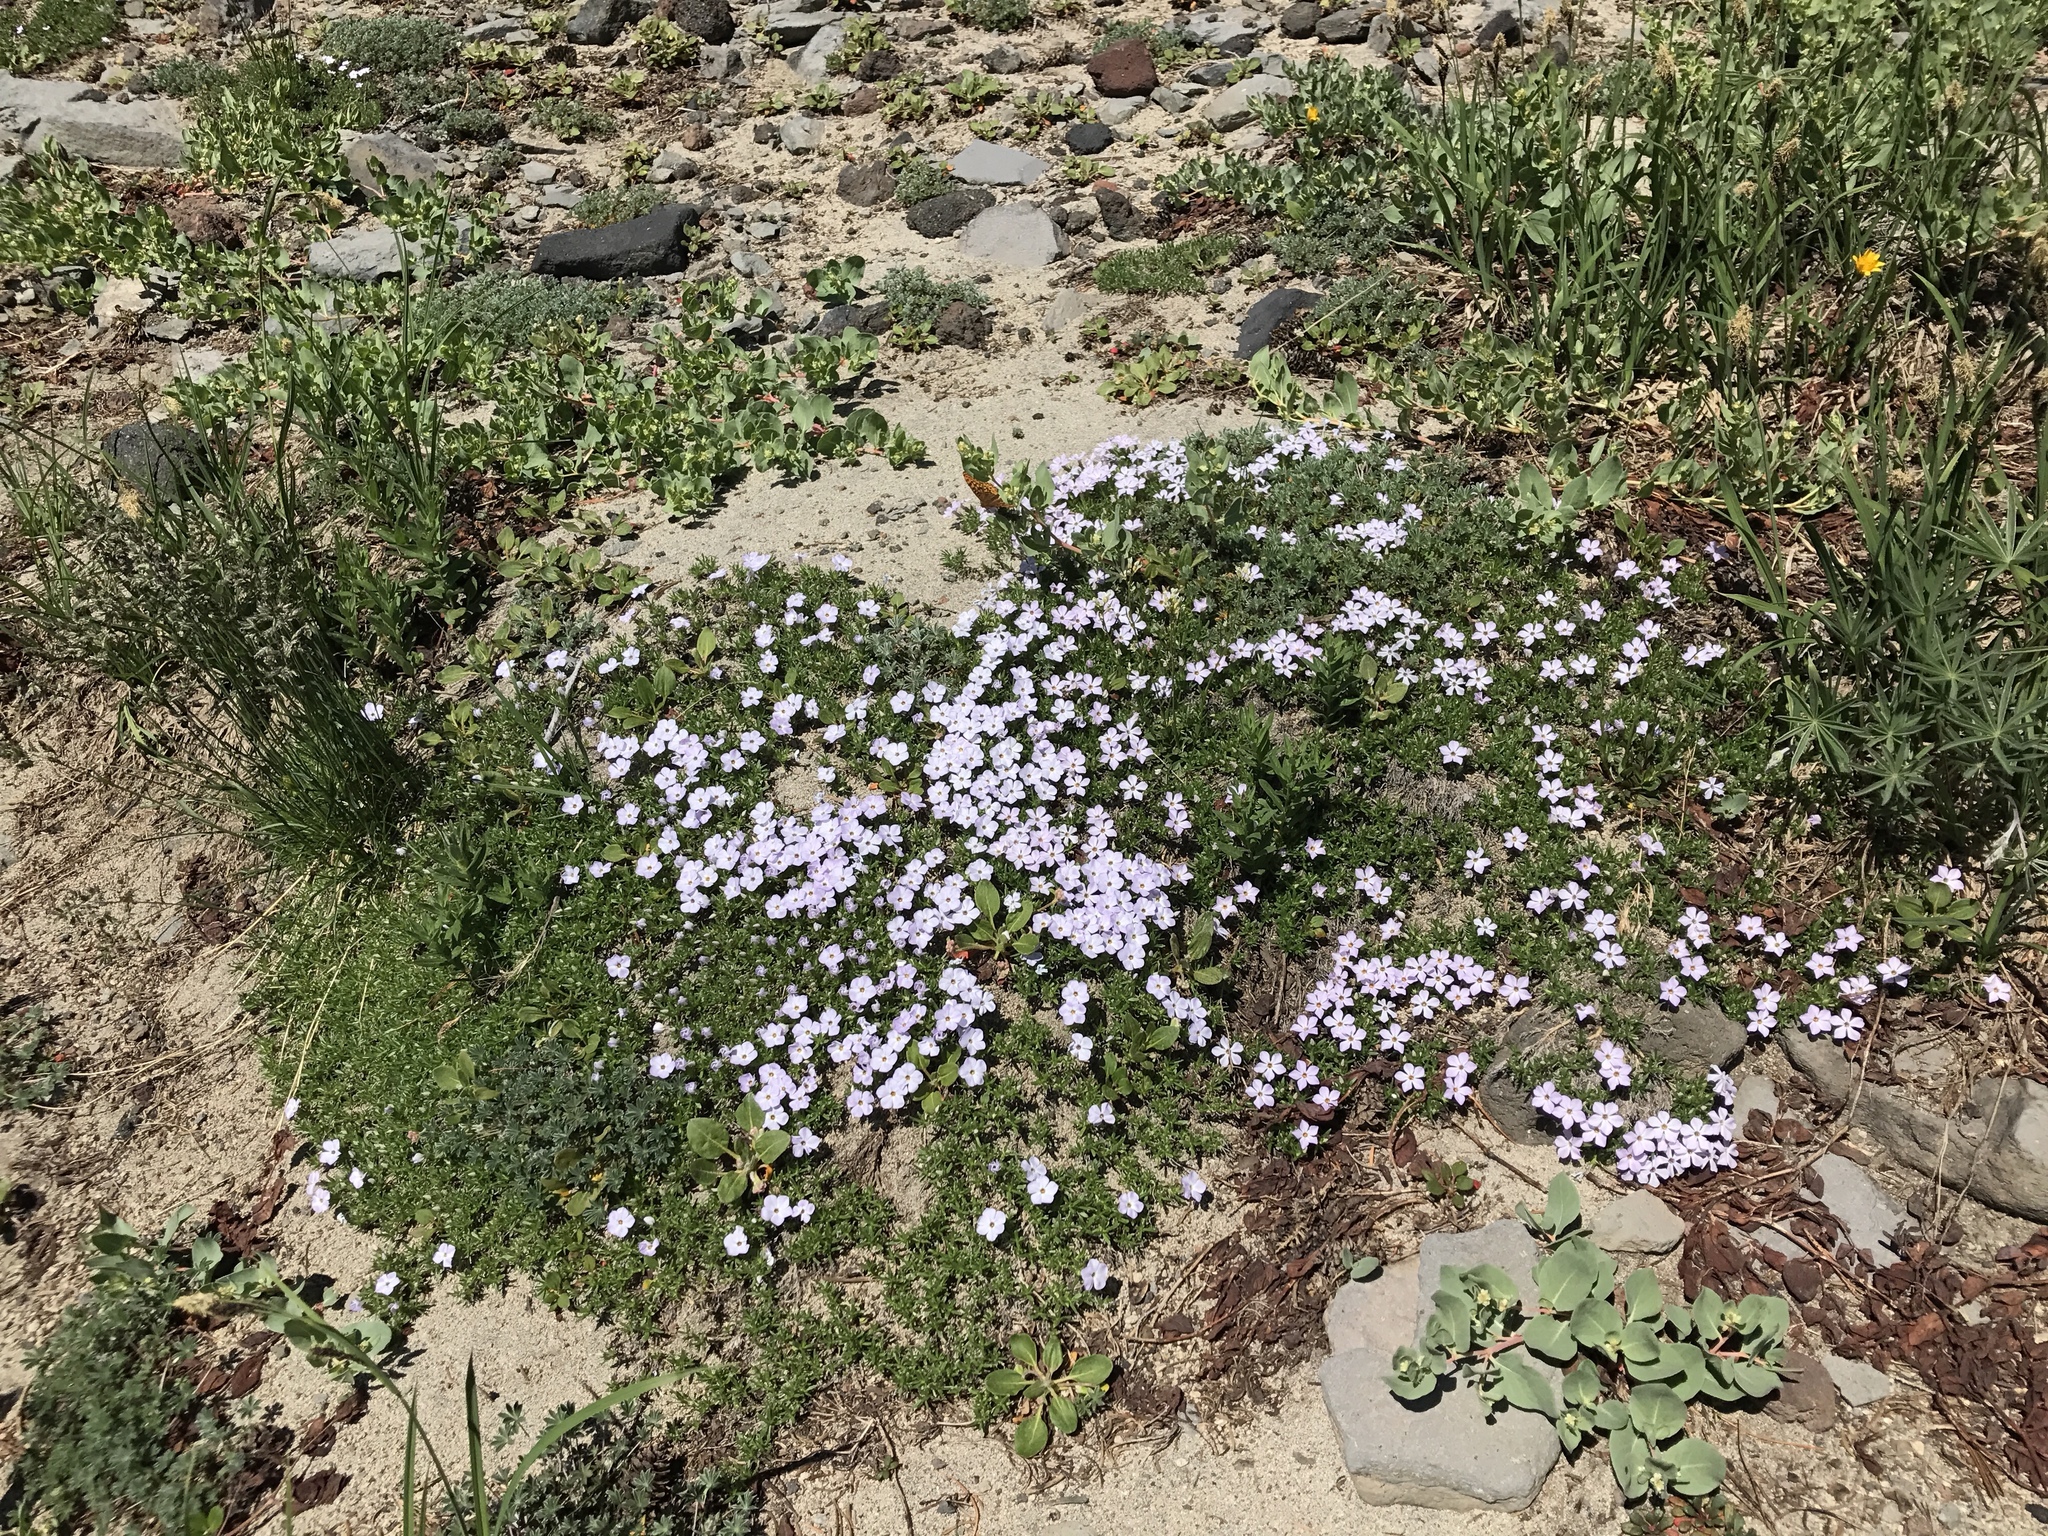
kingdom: Plantae
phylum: Tracheophyta
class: Magnoliopsida
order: Ericales
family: Polemoniaceae
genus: Phlox
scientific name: Phlox diffusa
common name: Mat phlox
